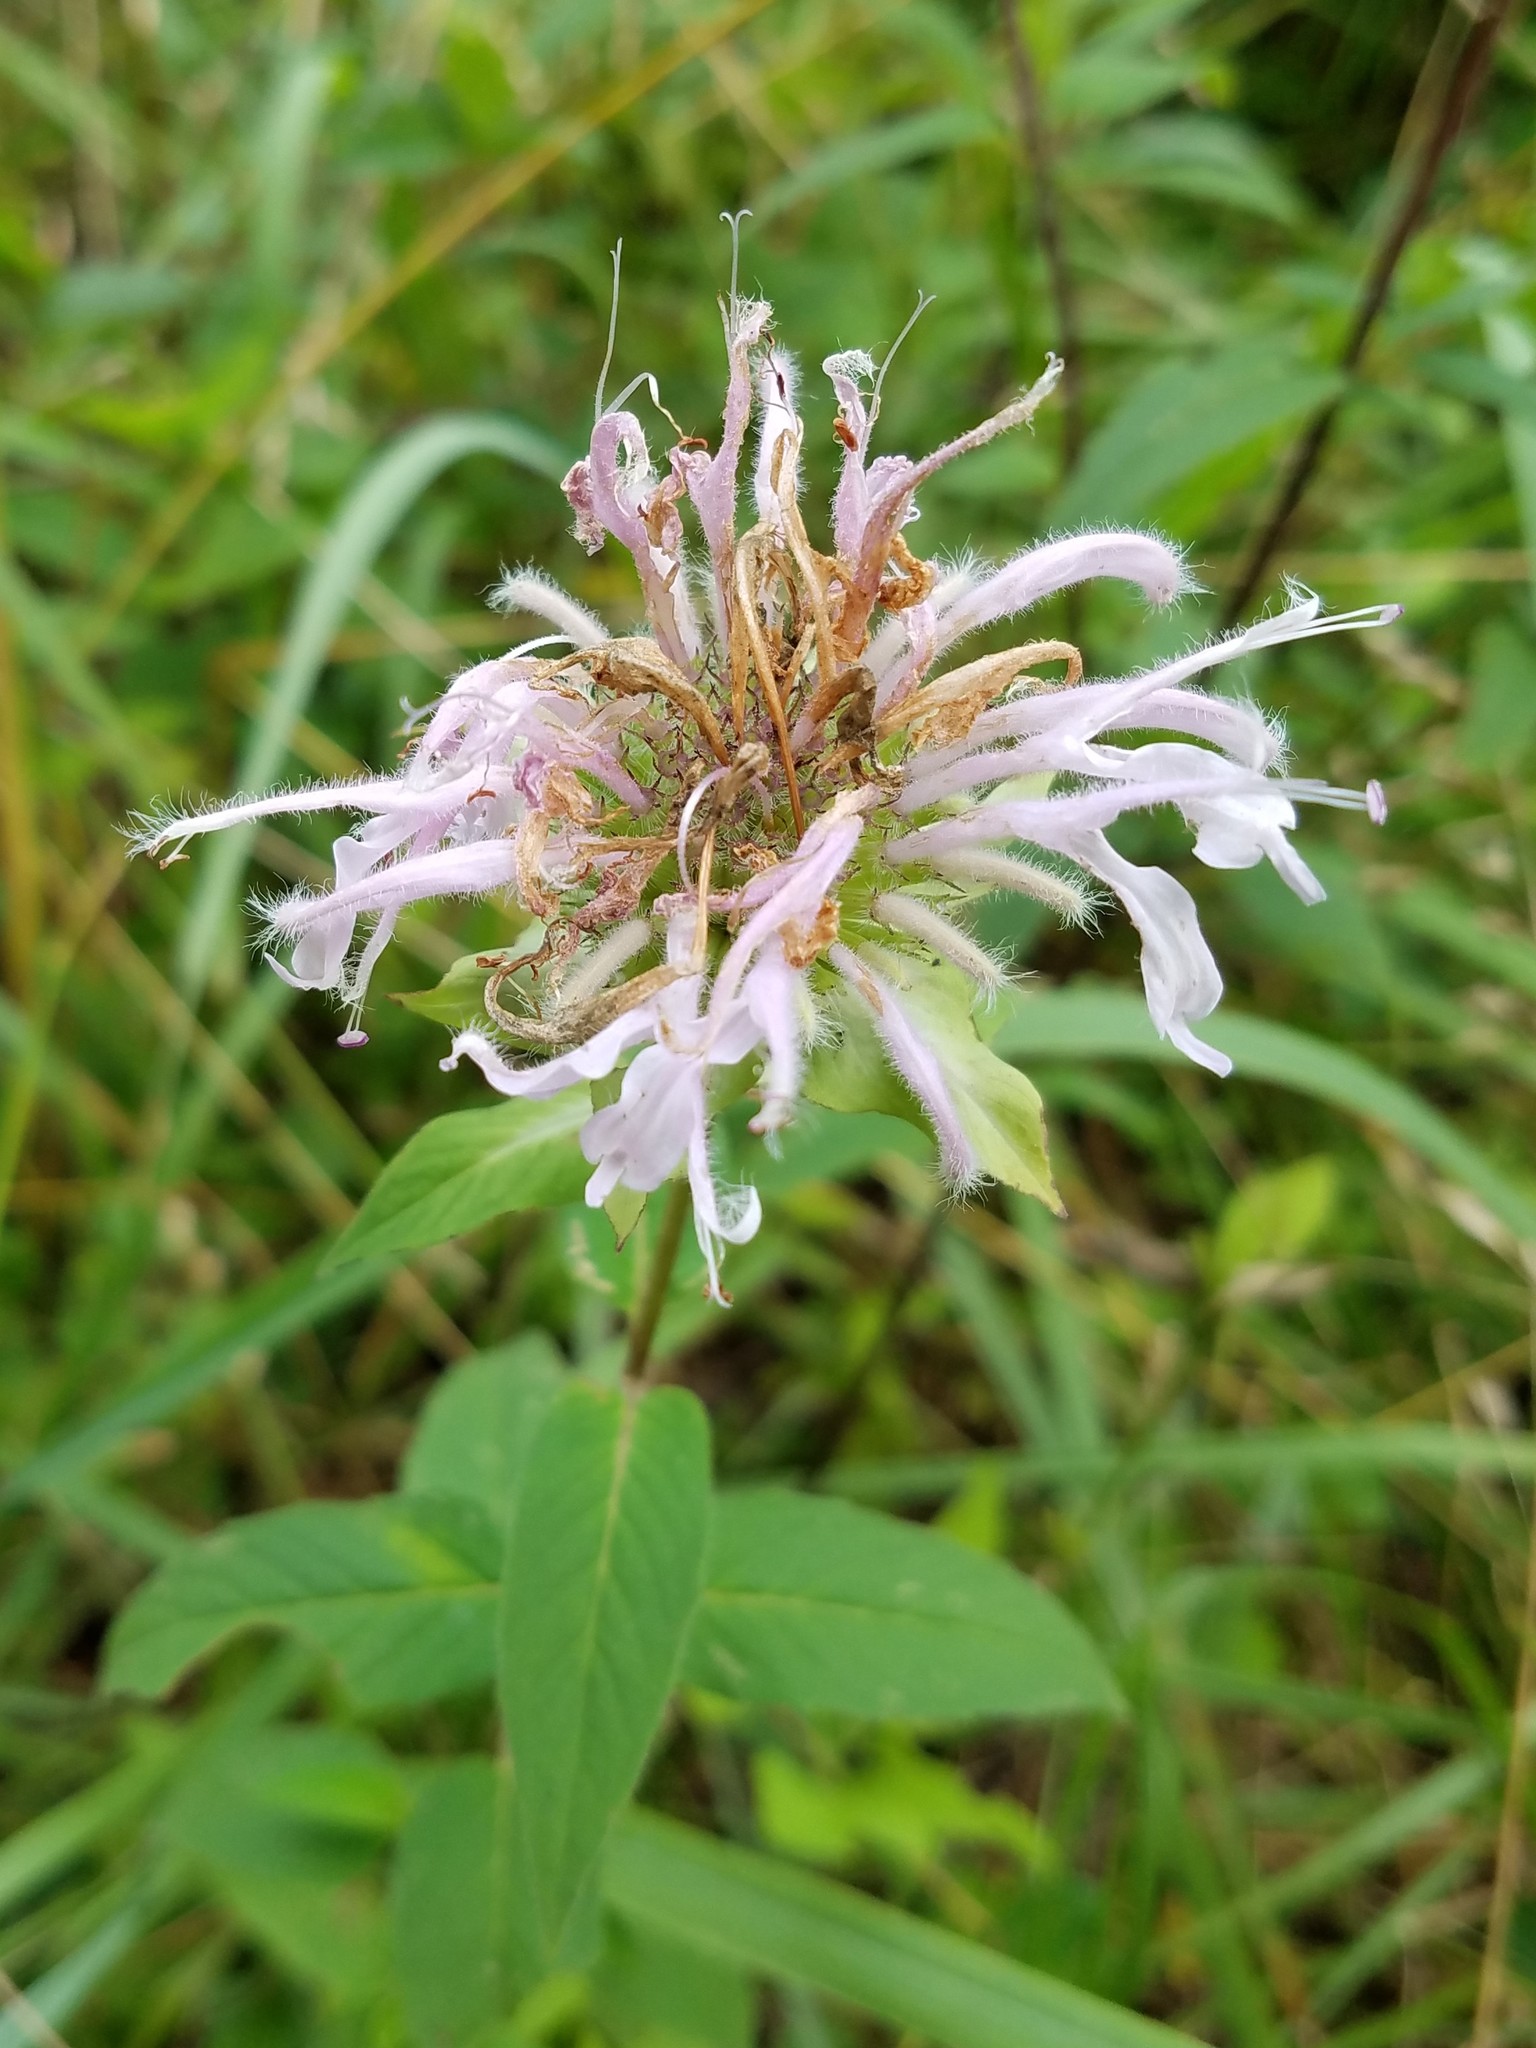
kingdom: Plantae
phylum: Tracheophyta
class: Magnoliopsida
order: Lamiales
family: Lamiaceae
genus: Monarda
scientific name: Monarda fistulosa
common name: Purple beebalm
